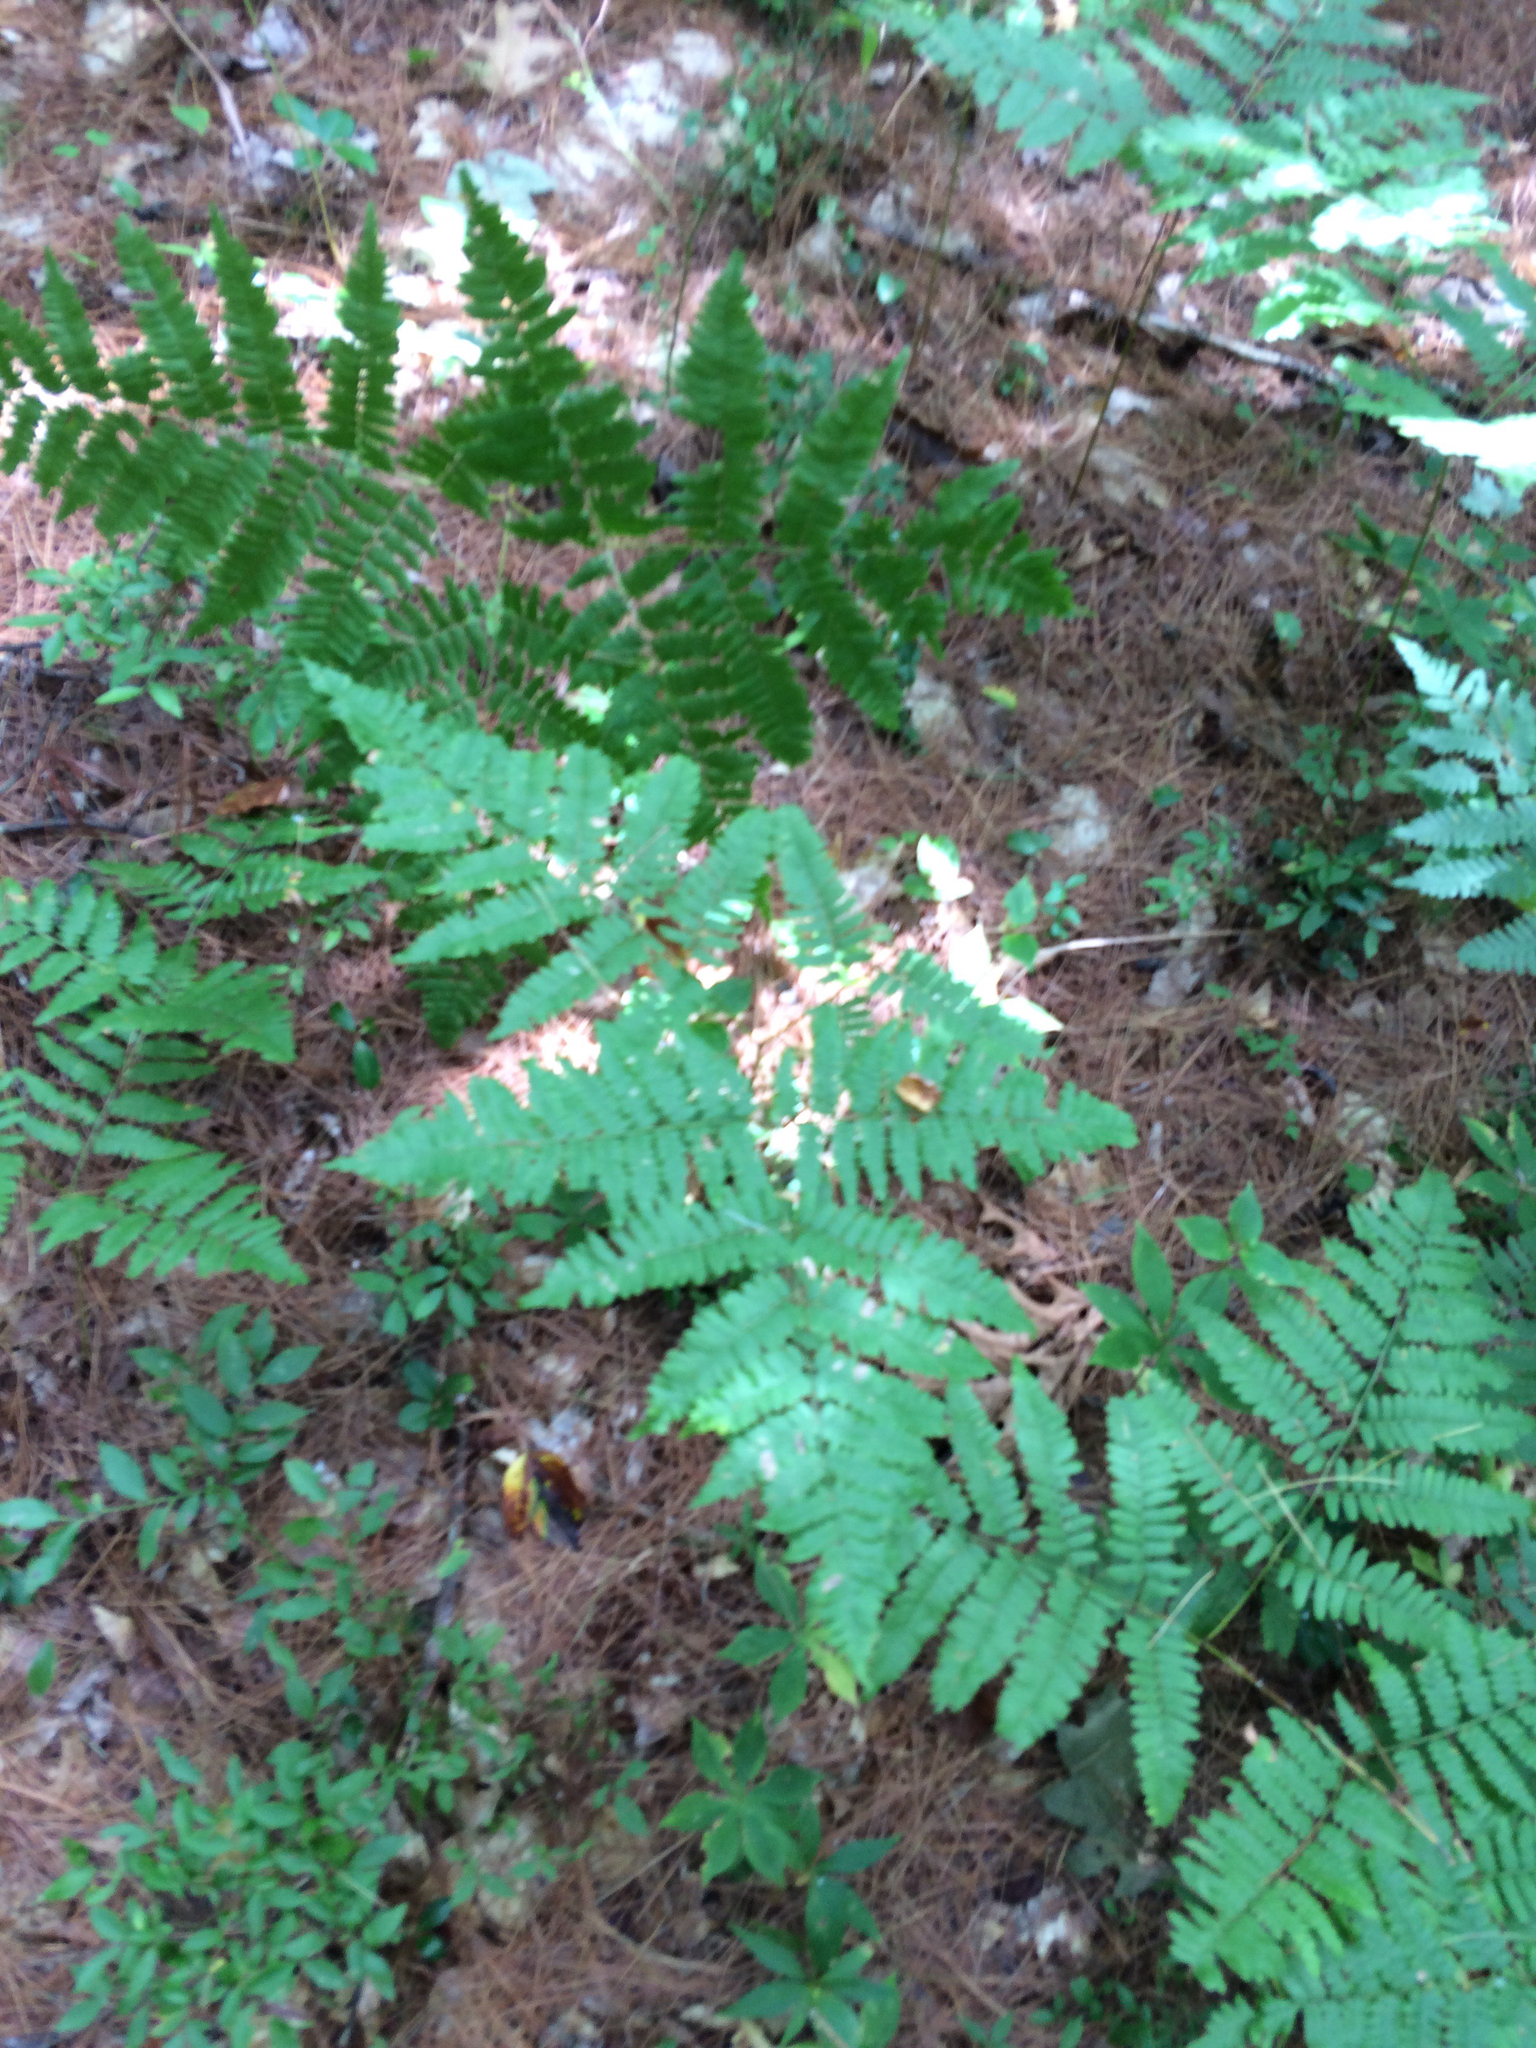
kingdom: Plantae
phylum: Tracheophyta
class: Polypodiopsida
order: Polypodiales
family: Dennstaedtiaceae
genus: Pteridium
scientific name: Pteridium aquilinum
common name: Bracken
